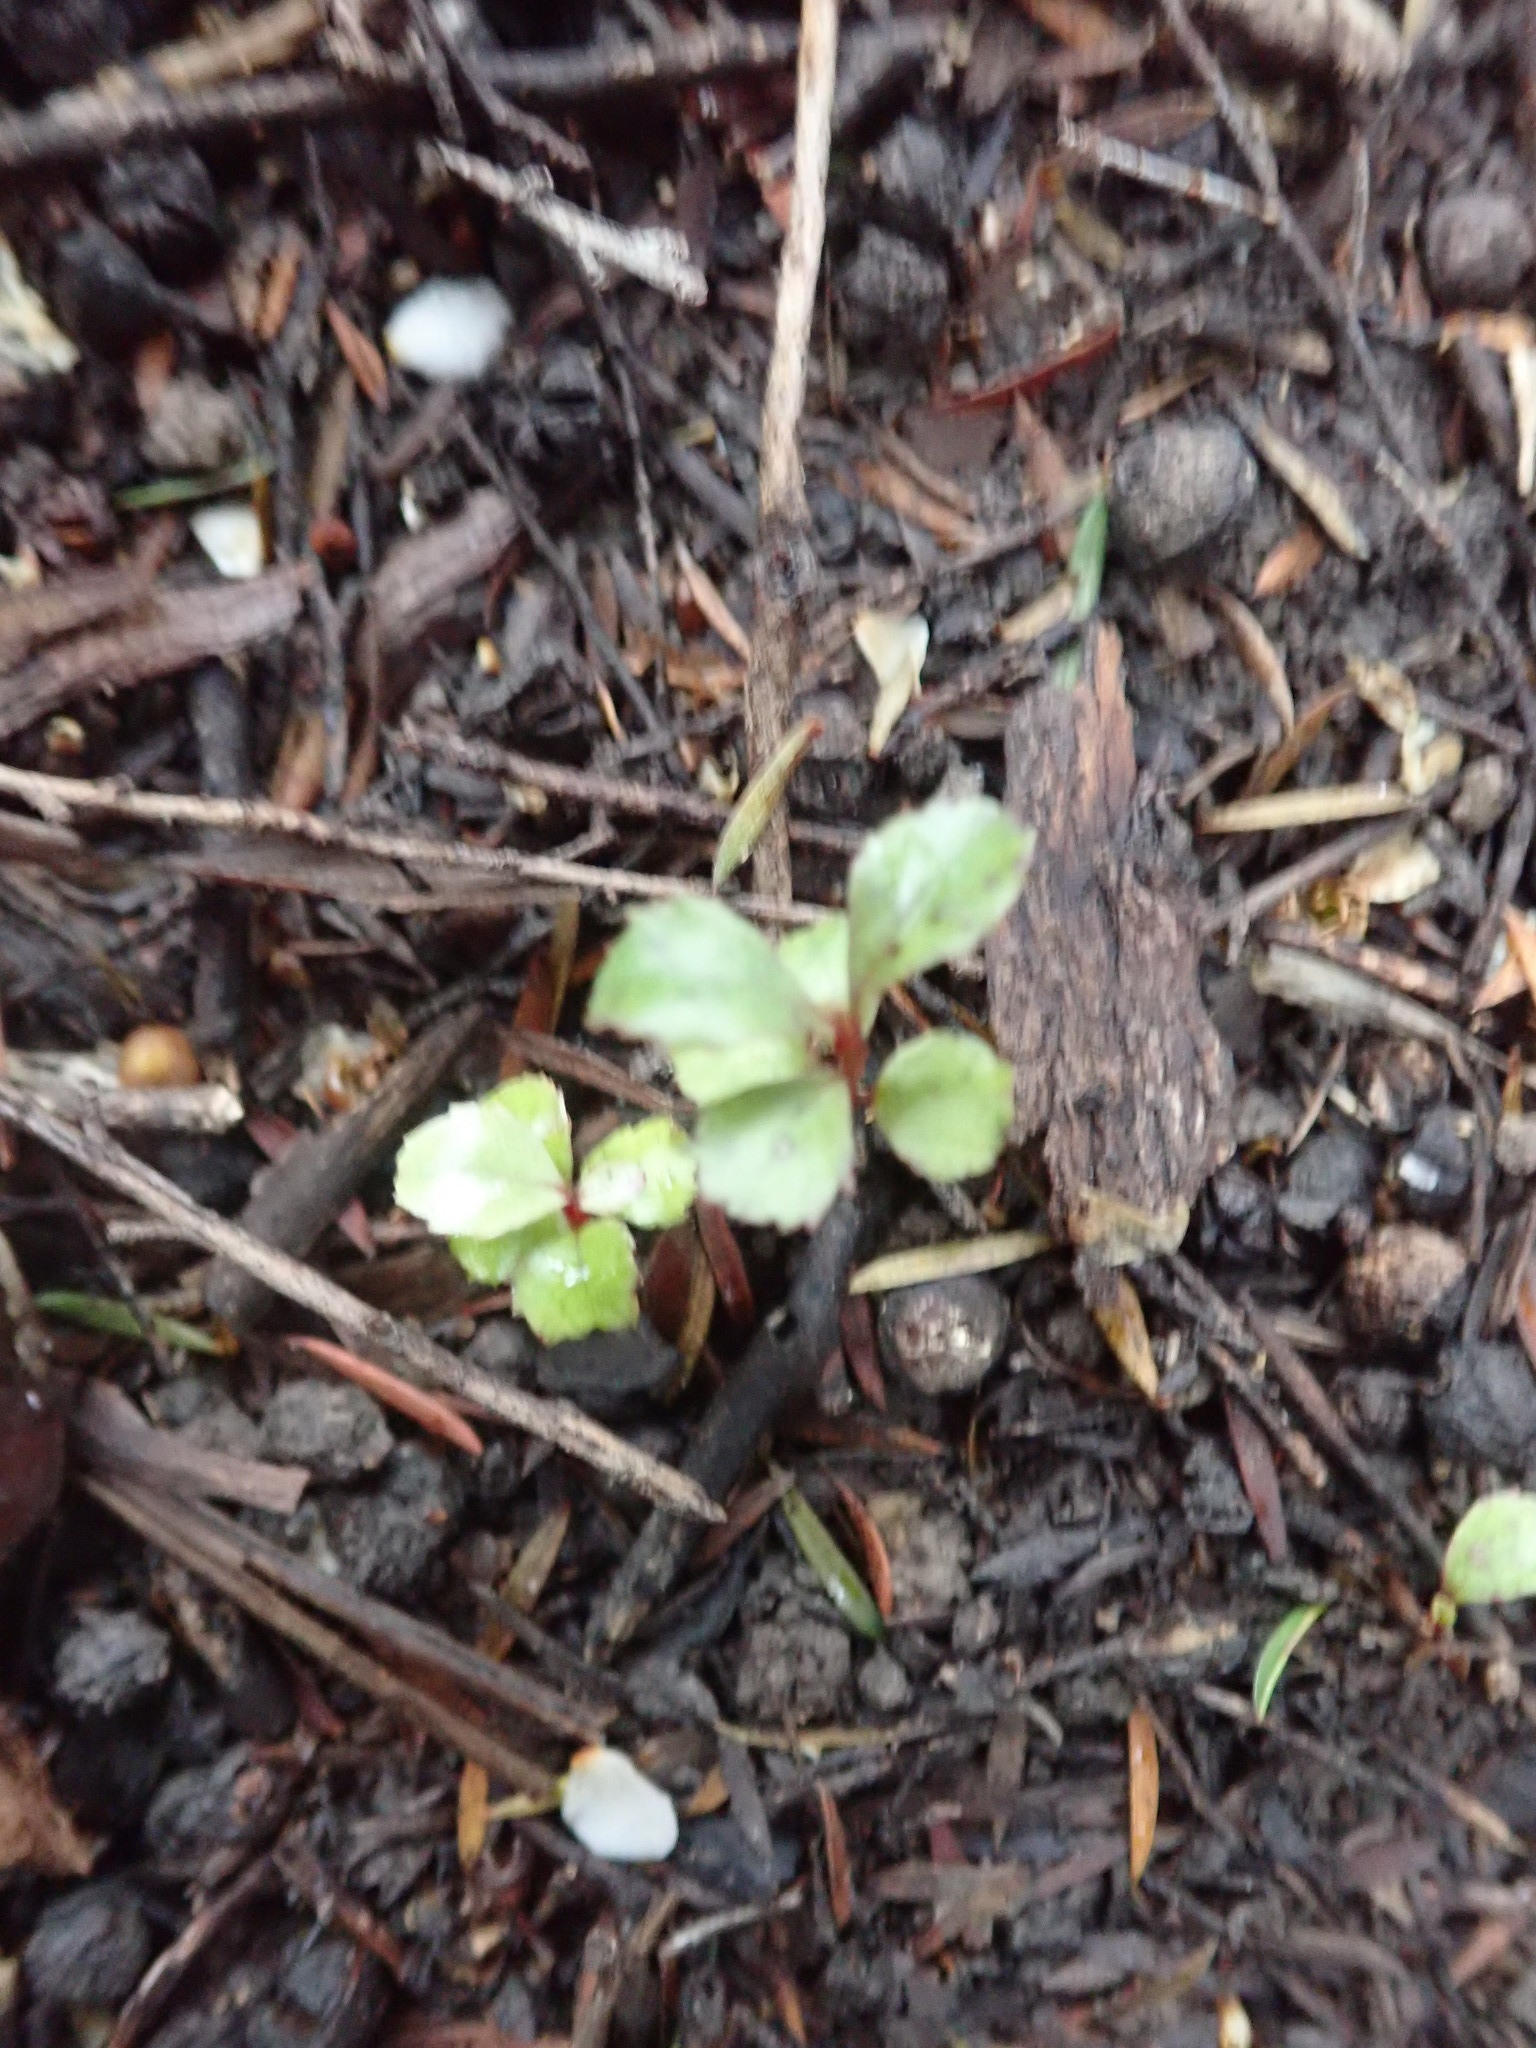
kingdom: Plantae
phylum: Tracheophyta
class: Magnoliopsida
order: Ericales
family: Primulaceae
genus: Myrsine
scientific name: Myrsine australis
